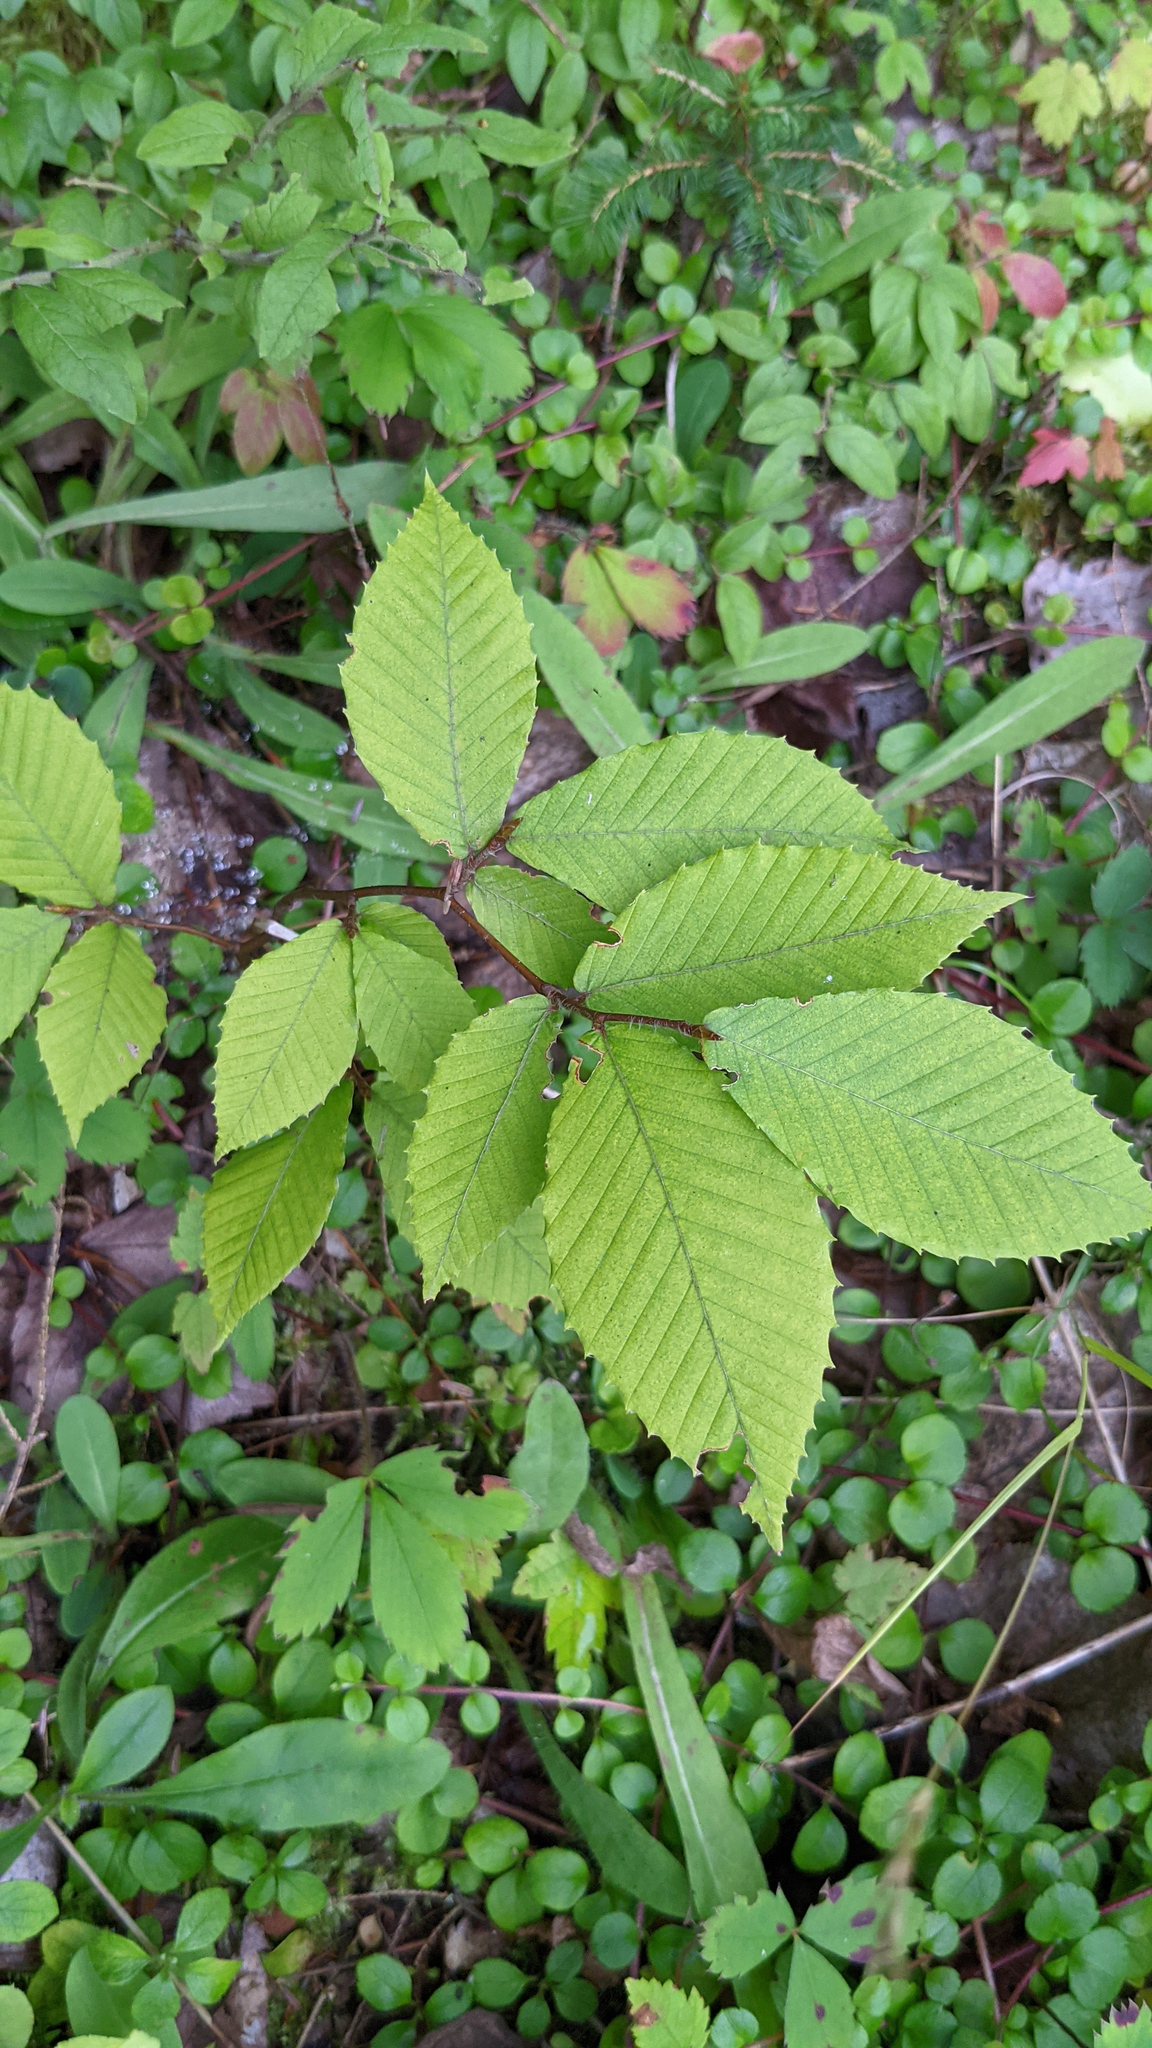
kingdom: Plantae
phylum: Tracheophyta
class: Magnoliopsida
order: Fagales
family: Fagaceae
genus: Fagus
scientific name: Fagus grandifolia
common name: American beech
